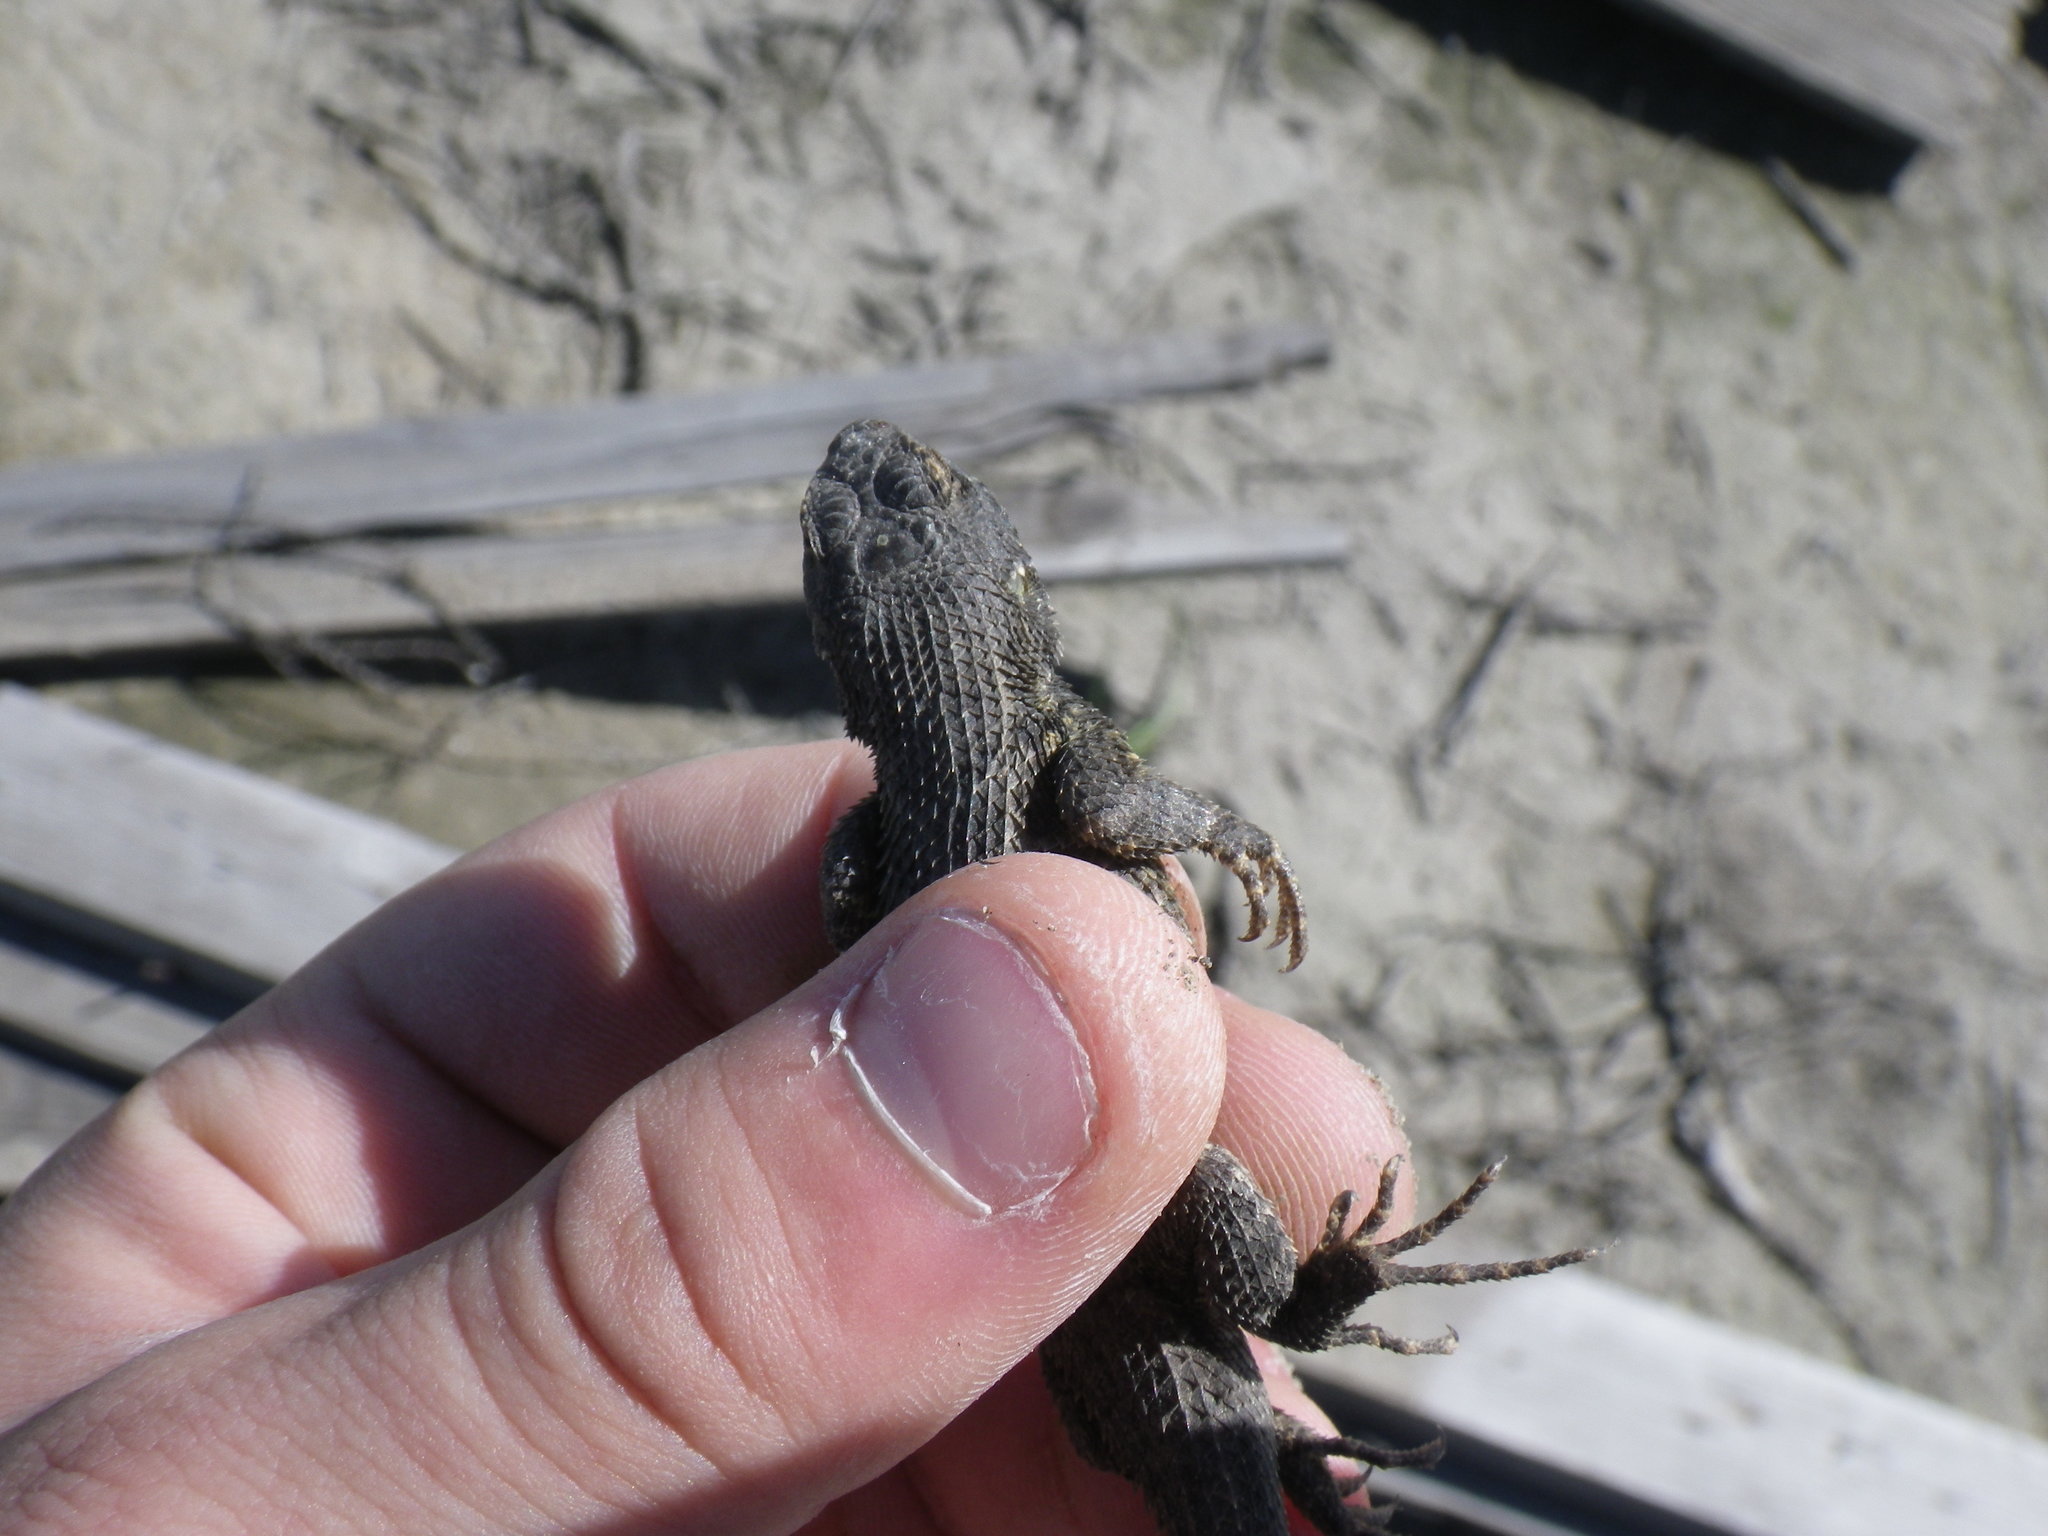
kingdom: Animalia
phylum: Chordata
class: Squamata
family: Phrynosomatidae
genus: Sceloporus
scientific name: Sceloporus occidentalis
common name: Western fence lizard
